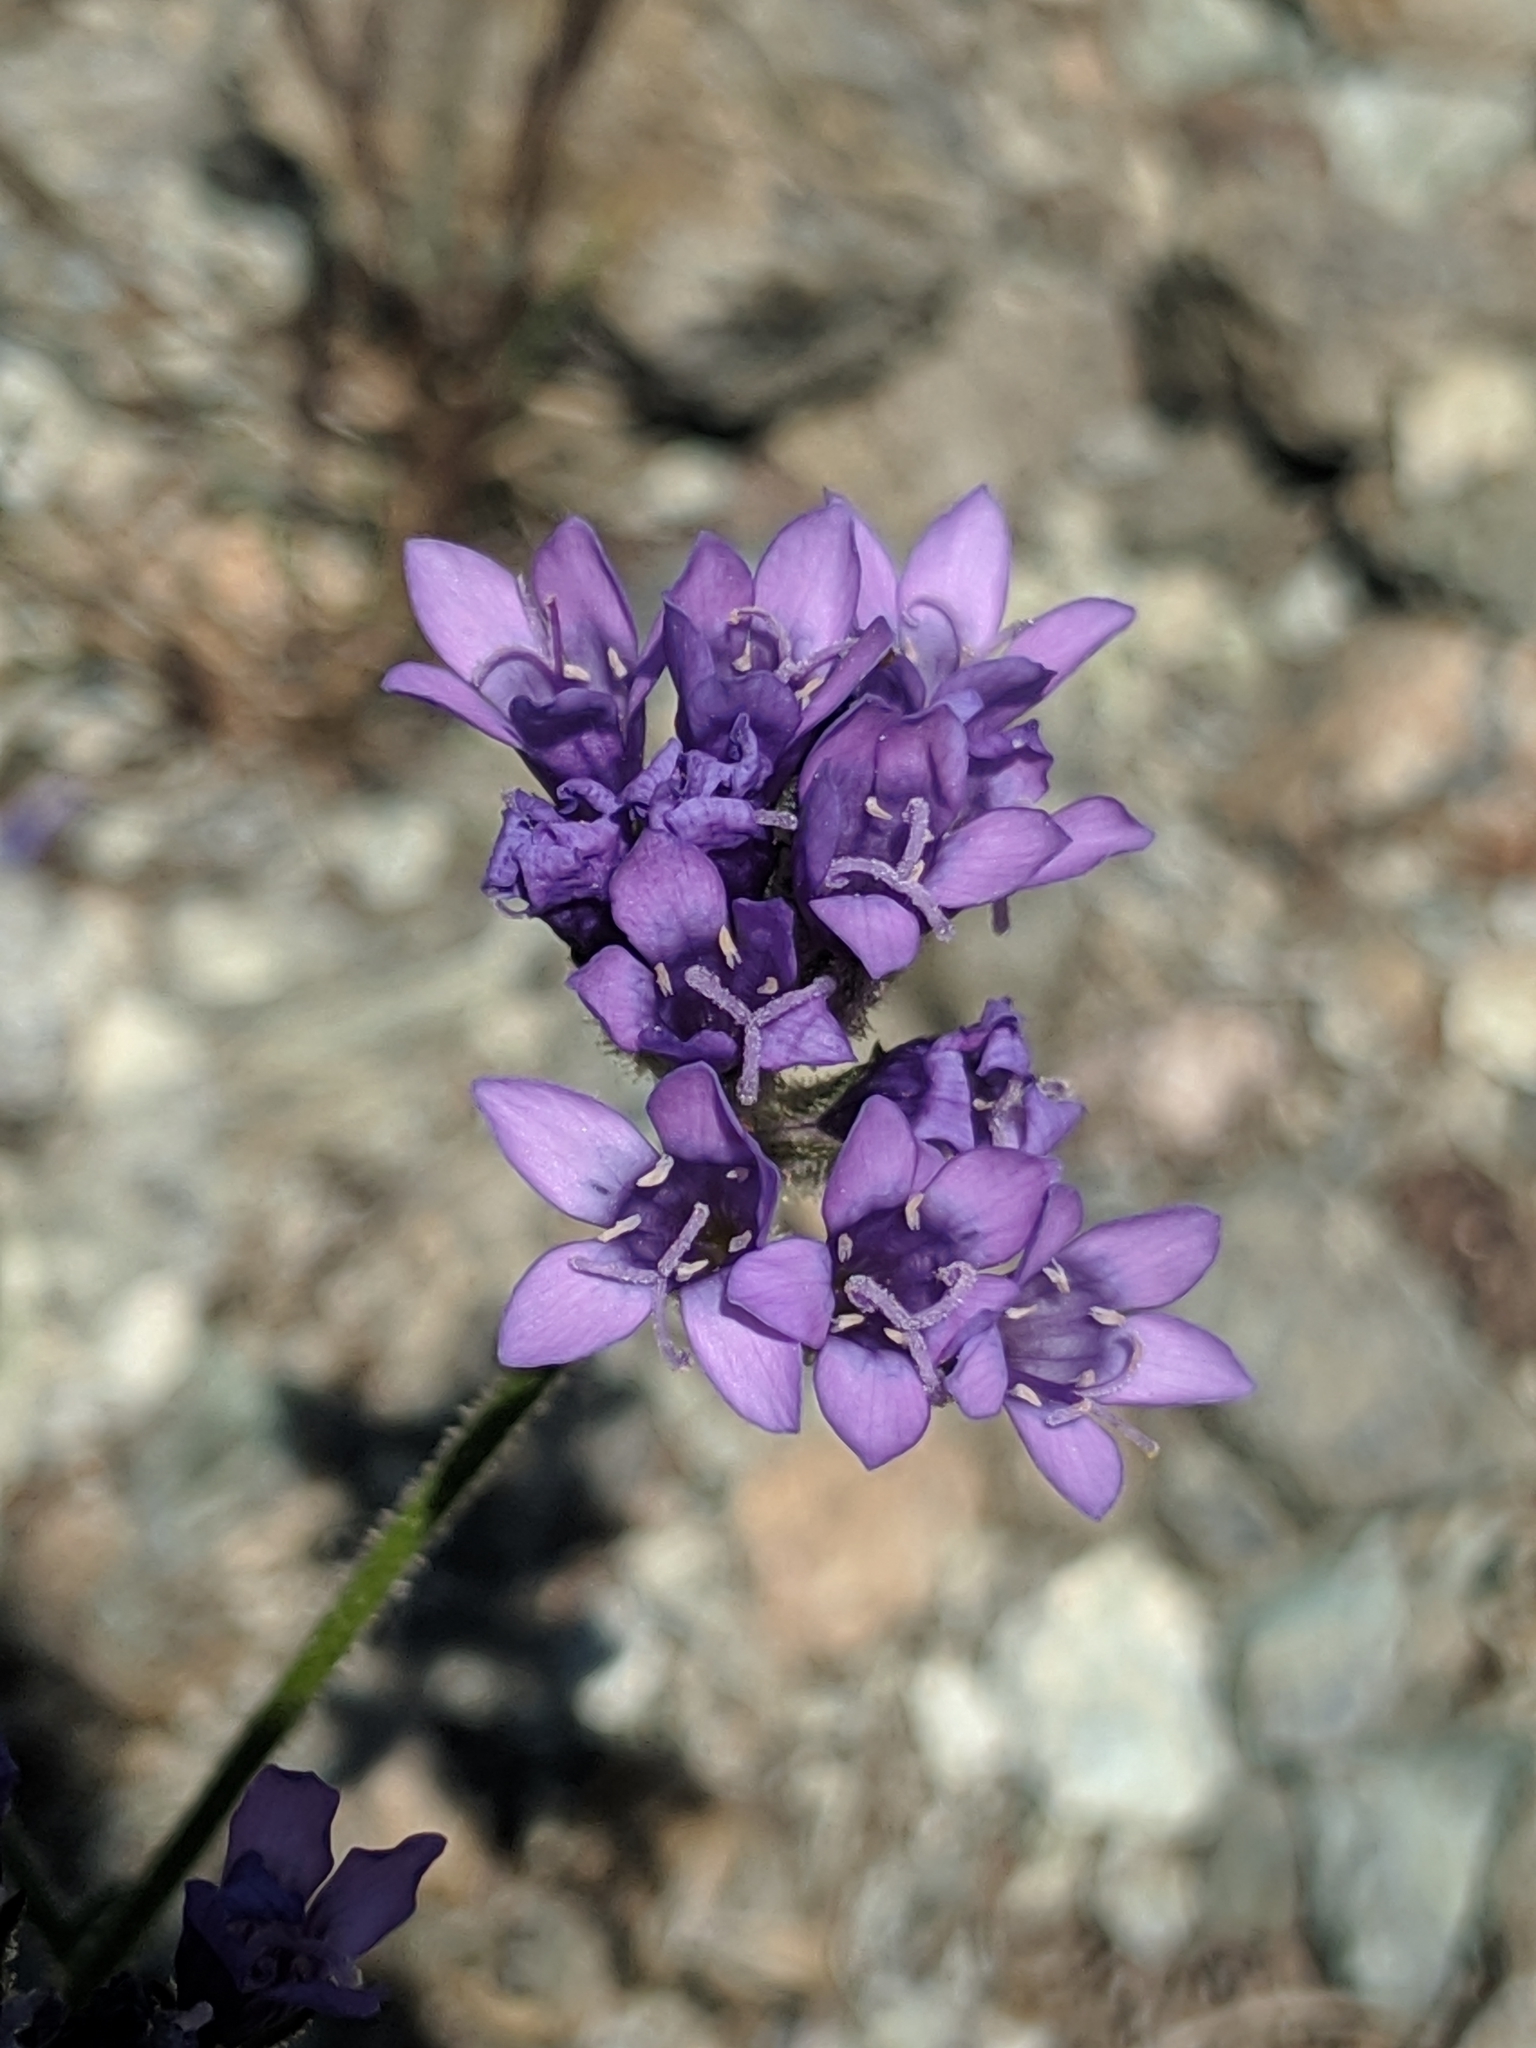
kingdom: Plantae
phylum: Tracheophyta
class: Magnoliopsida
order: Ericales
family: Polemoniaceae
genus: Gilia
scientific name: Gilia achilleifolia
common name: California gily-flower
